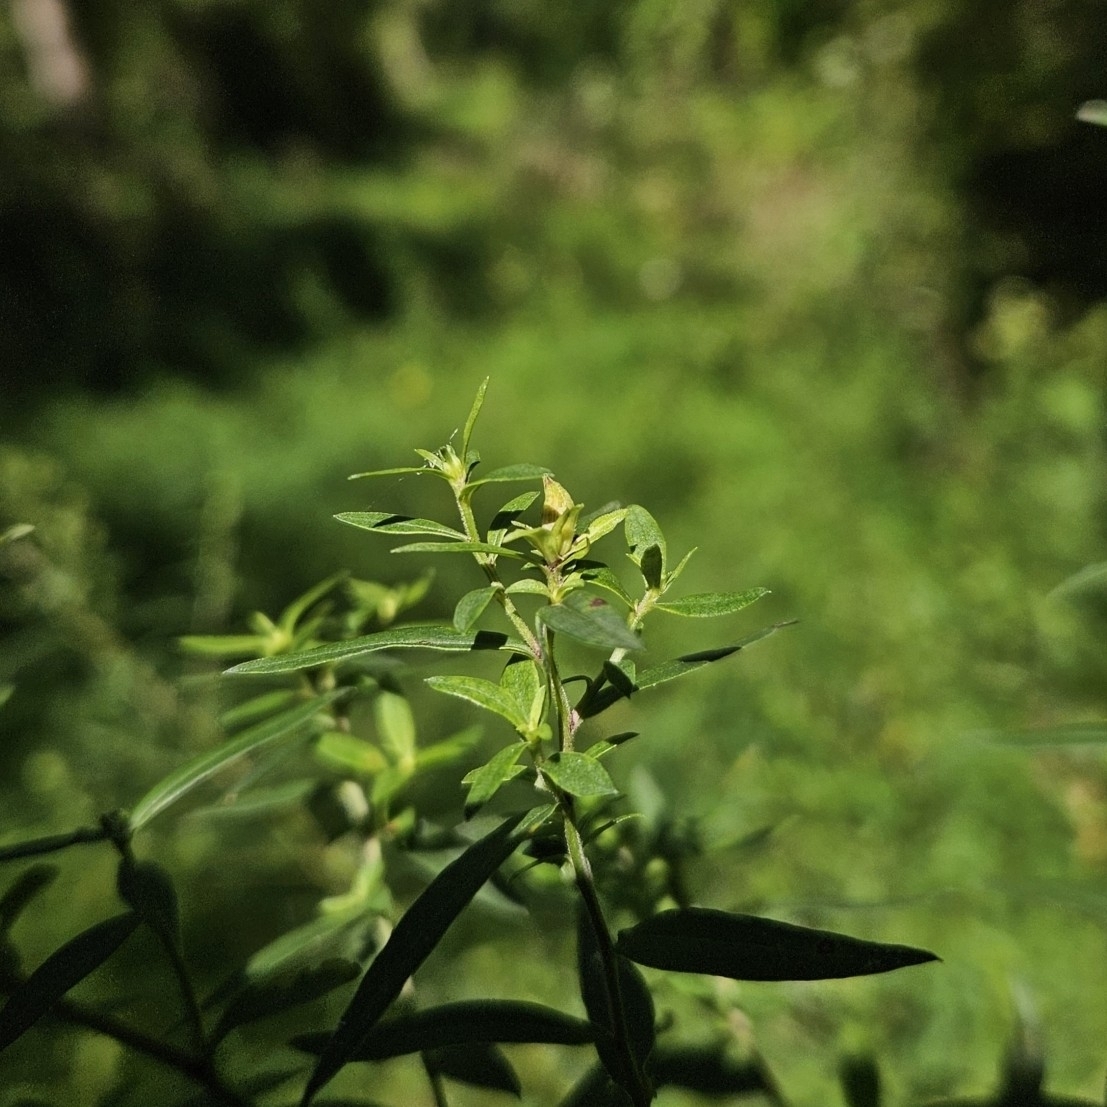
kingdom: Animalia
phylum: Arthropoda
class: Insecta
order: Diptera
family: Cecidomyiidae
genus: Asphondylia
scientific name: Asphondylia imbricata
